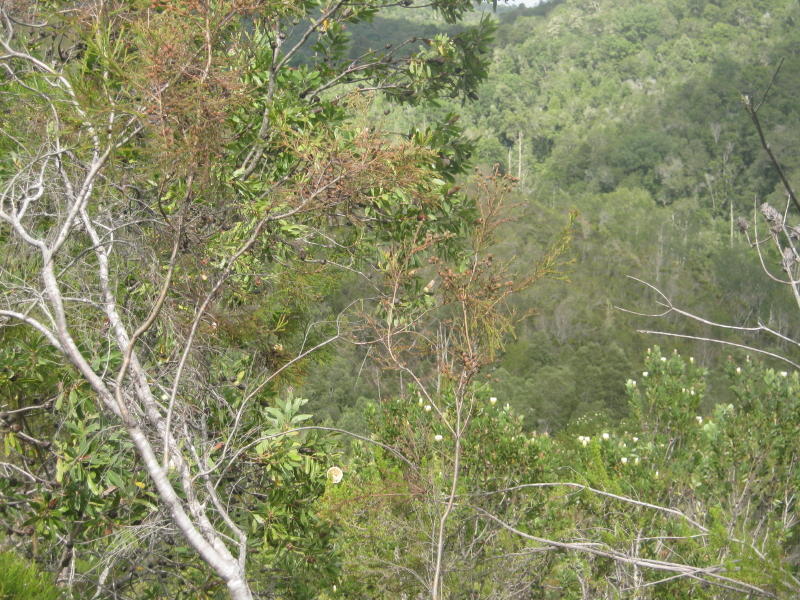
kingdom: Plantae
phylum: Tracheophyta
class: Magnoliopsida
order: Proteales
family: Proteaceae
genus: Protea
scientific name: Protea mundii
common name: Forest sugarbush
